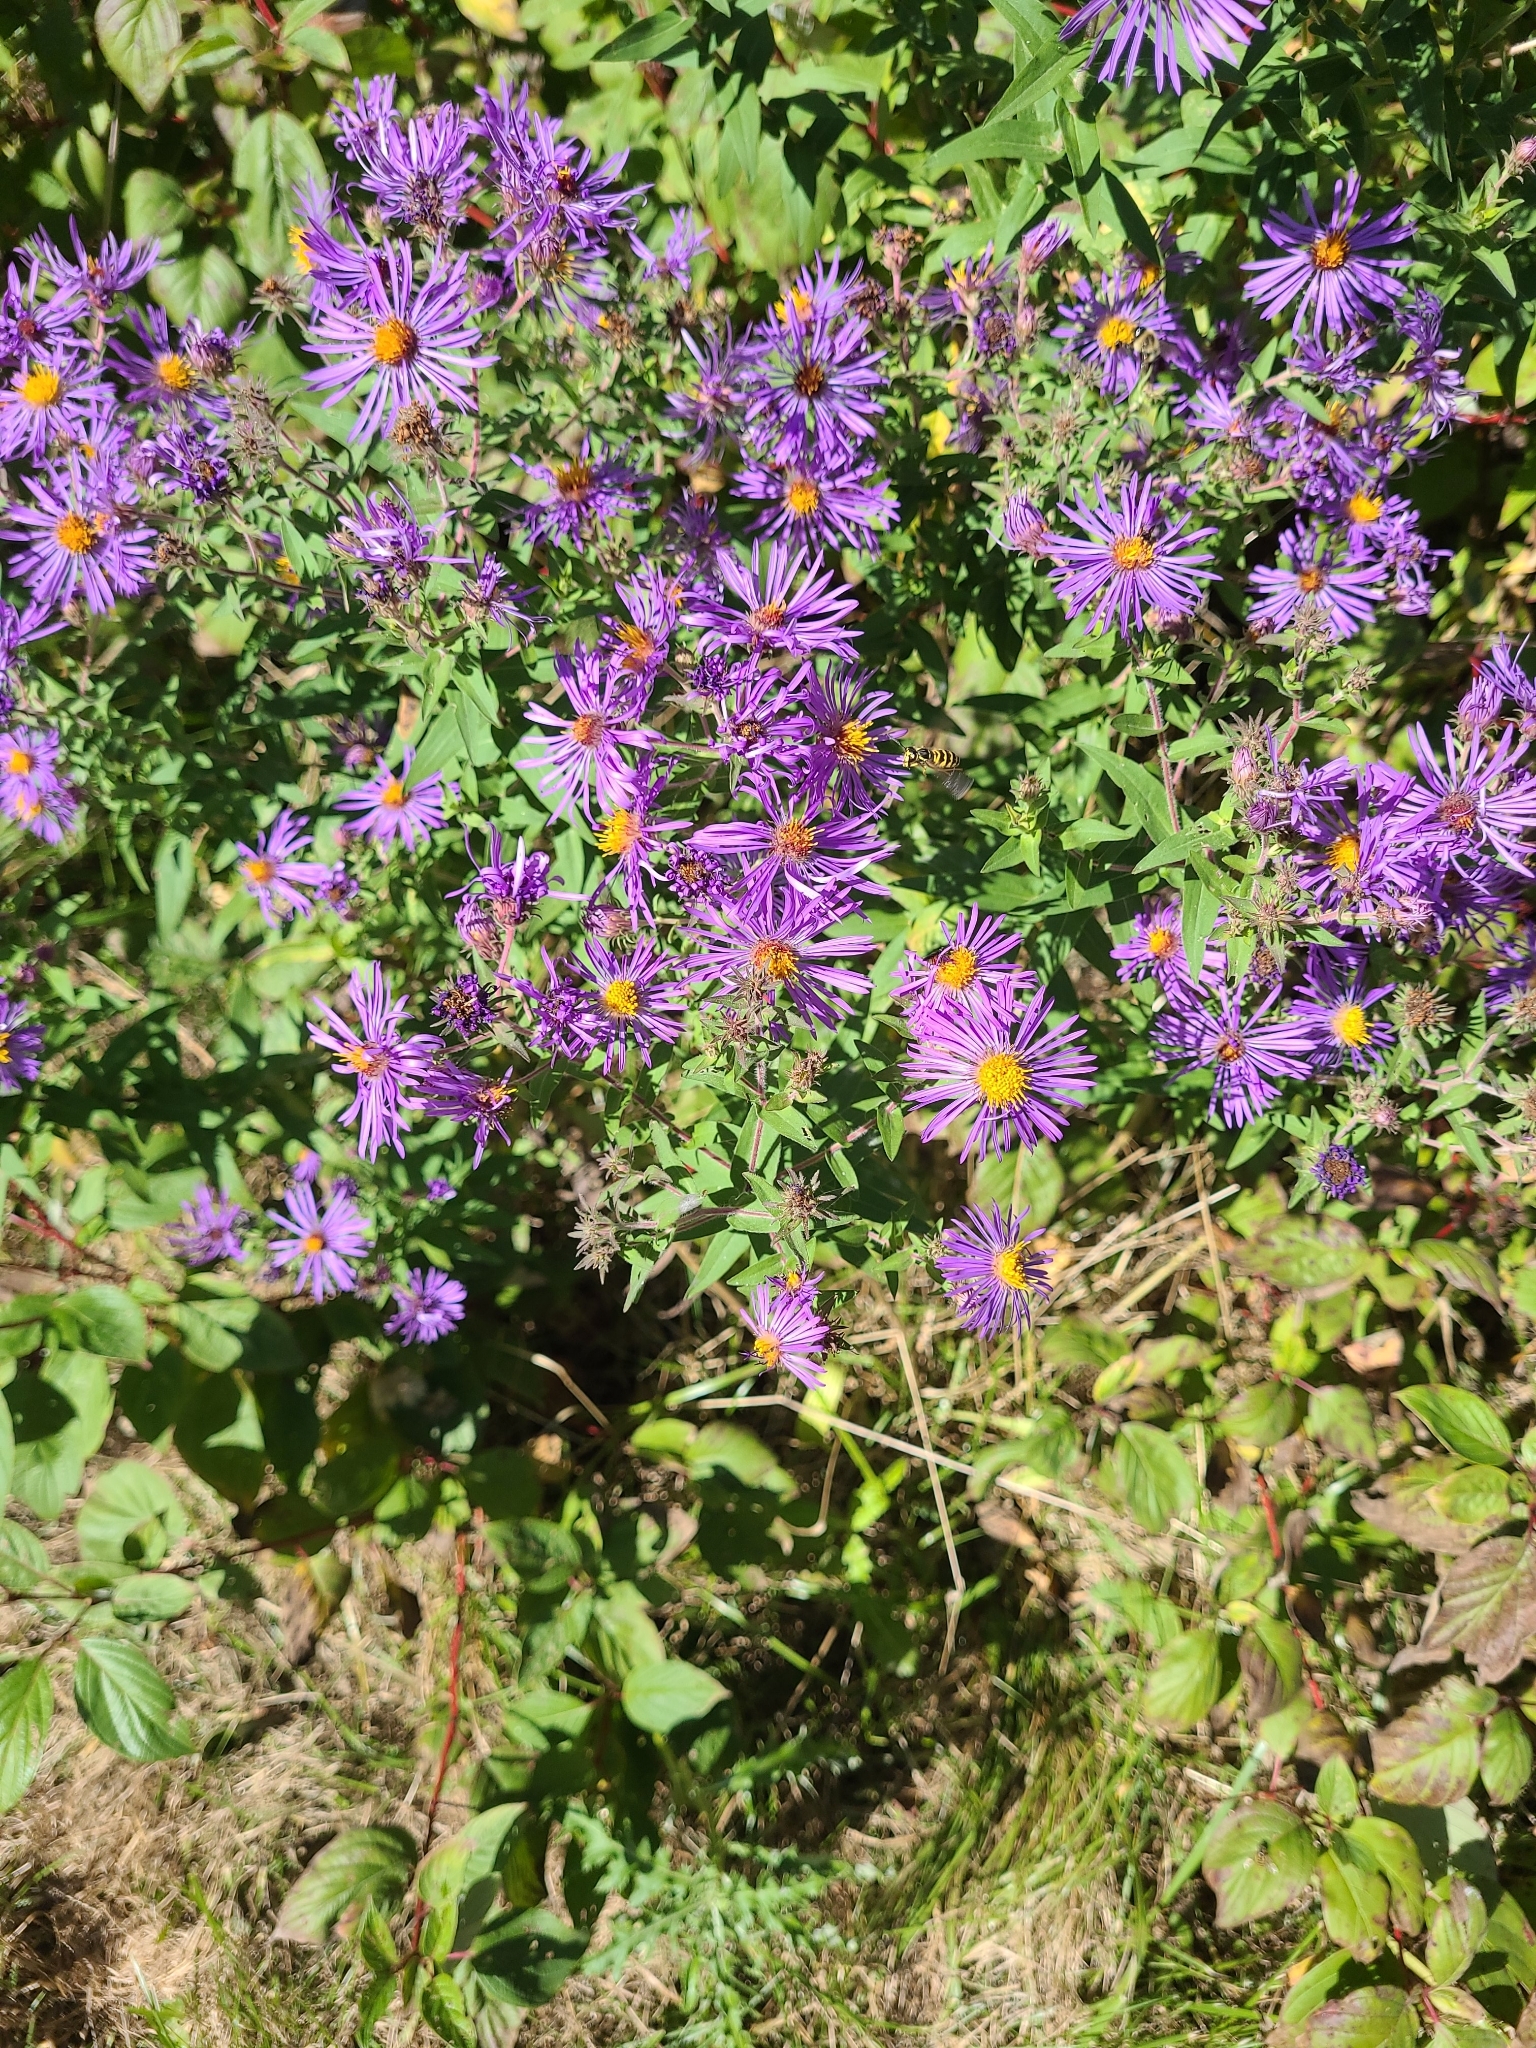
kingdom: Plantae
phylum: Tracheophyta
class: Magnoliopsida
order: Asterales
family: Asteraceae
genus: Symphyotrichum
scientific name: Symphyotrichum novae-angliae
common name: Michaelmas daisy
